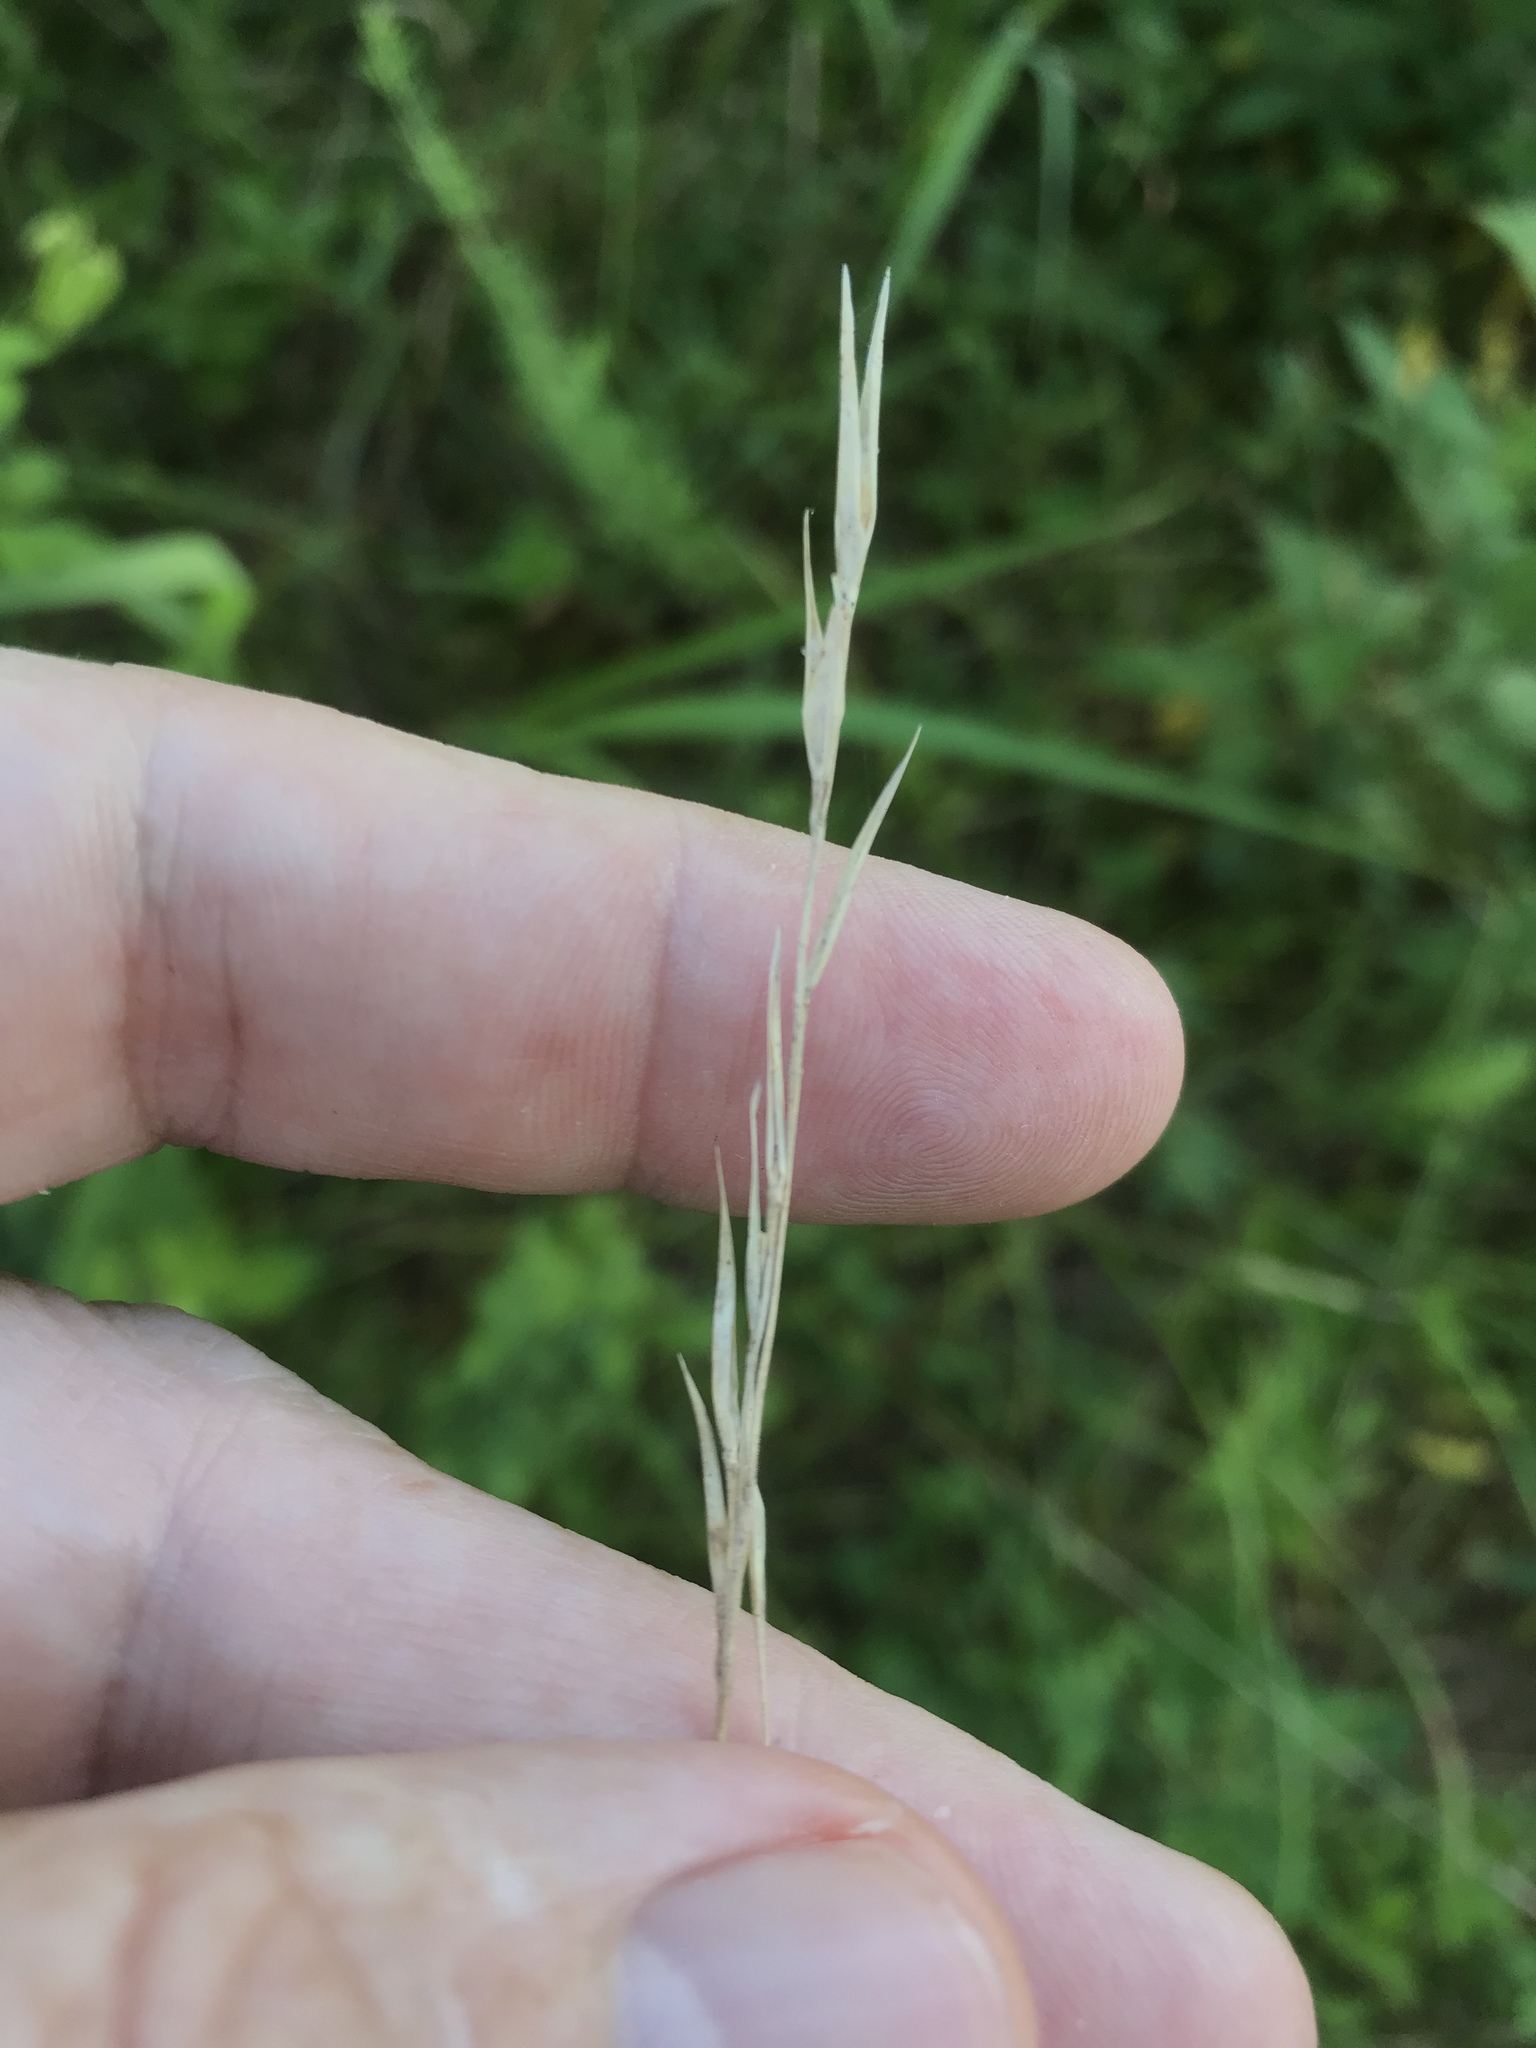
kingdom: Plantae
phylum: Tracheophyta
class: Liliopsida
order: Poales
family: Poaceae
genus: Danthonia
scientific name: Danthonia sericea
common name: Downy danthonia
